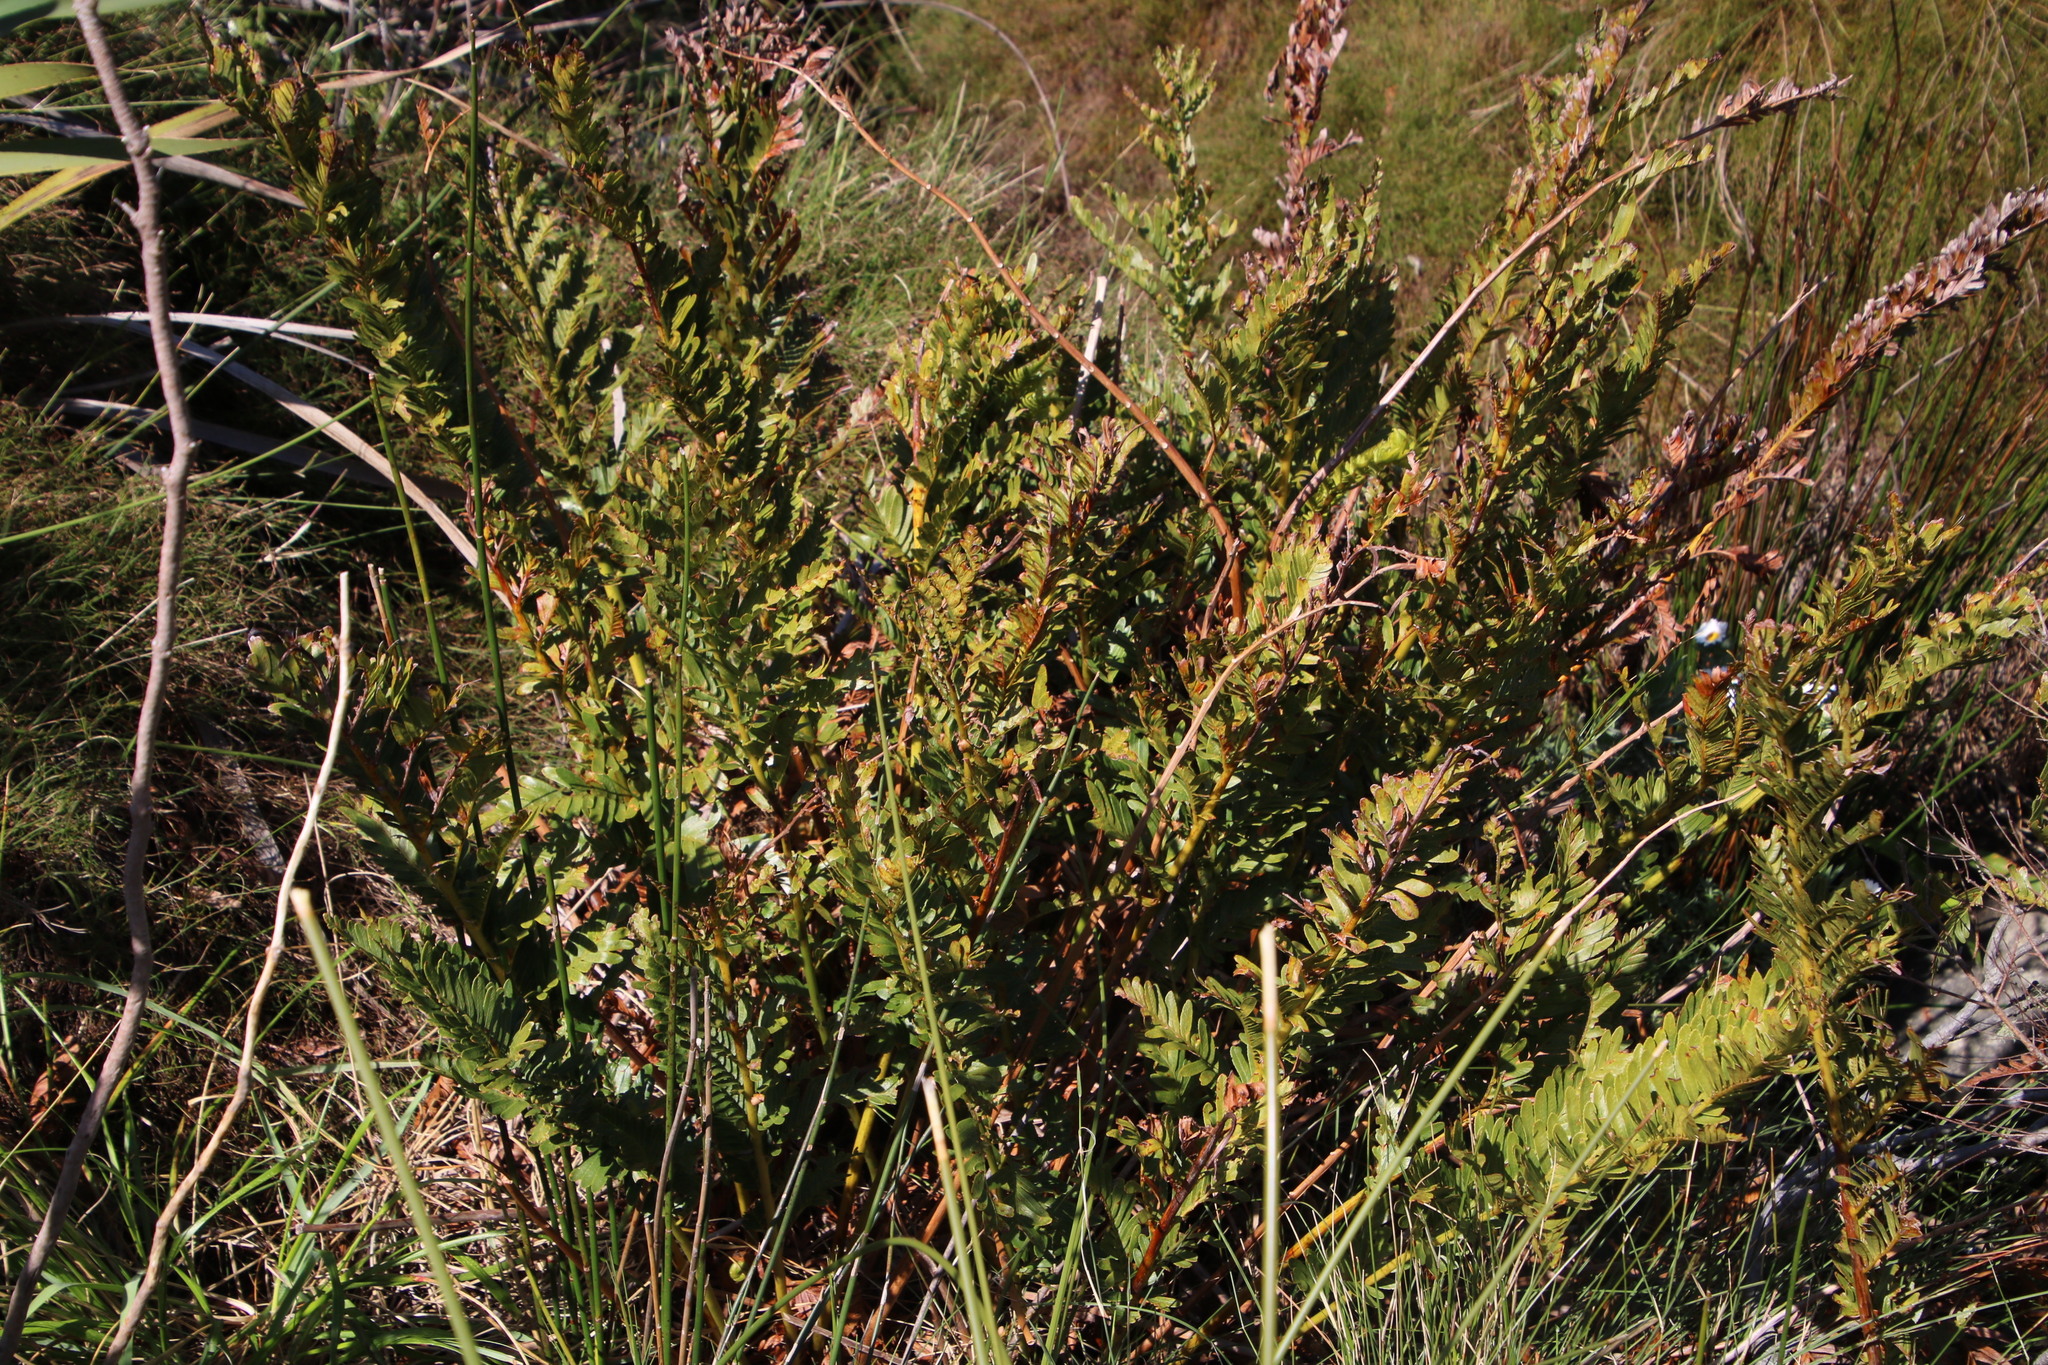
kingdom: Plantae
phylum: Tracheophyta
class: Polypodiopsida
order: Osmundales
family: Osmundaceae
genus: Todea
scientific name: Todea barbara
